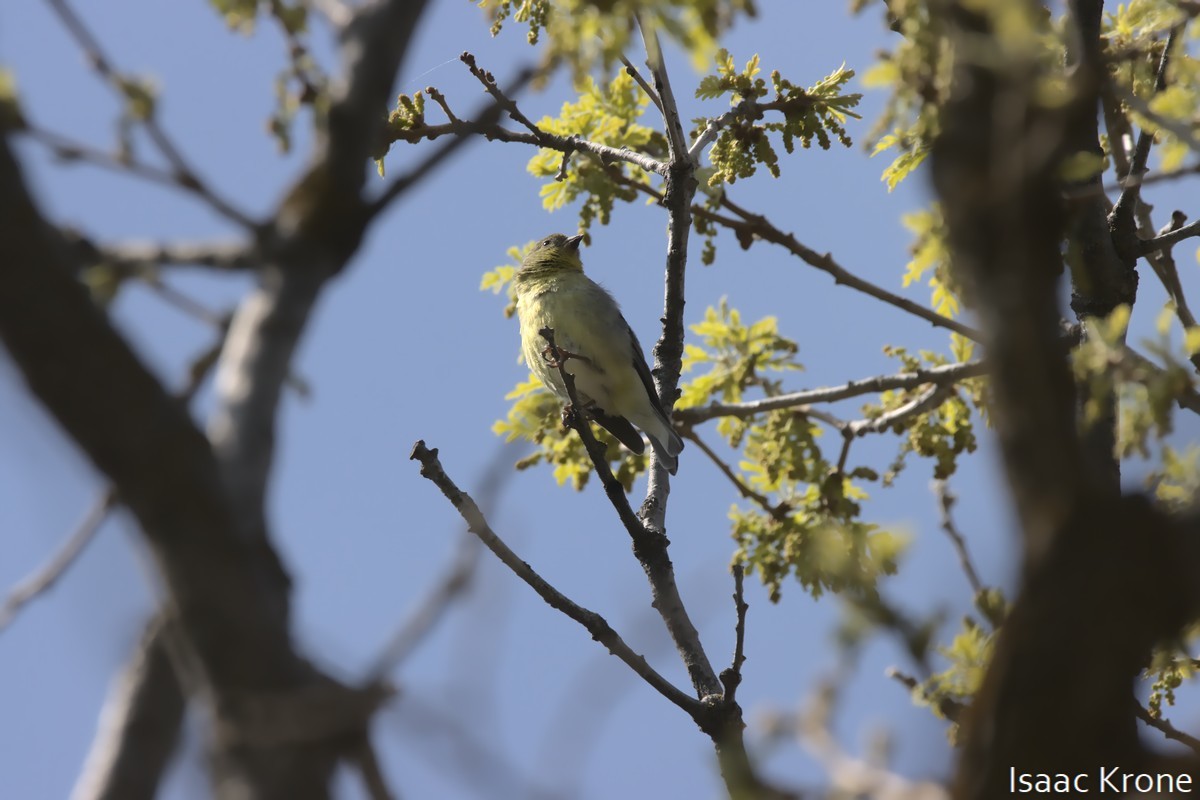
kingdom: Animalia
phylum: Chordata
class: Aves
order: Passeriformes
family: Fringillidae
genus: Spinus
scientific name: Spinus psaltria
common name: Lesser goldfinch
